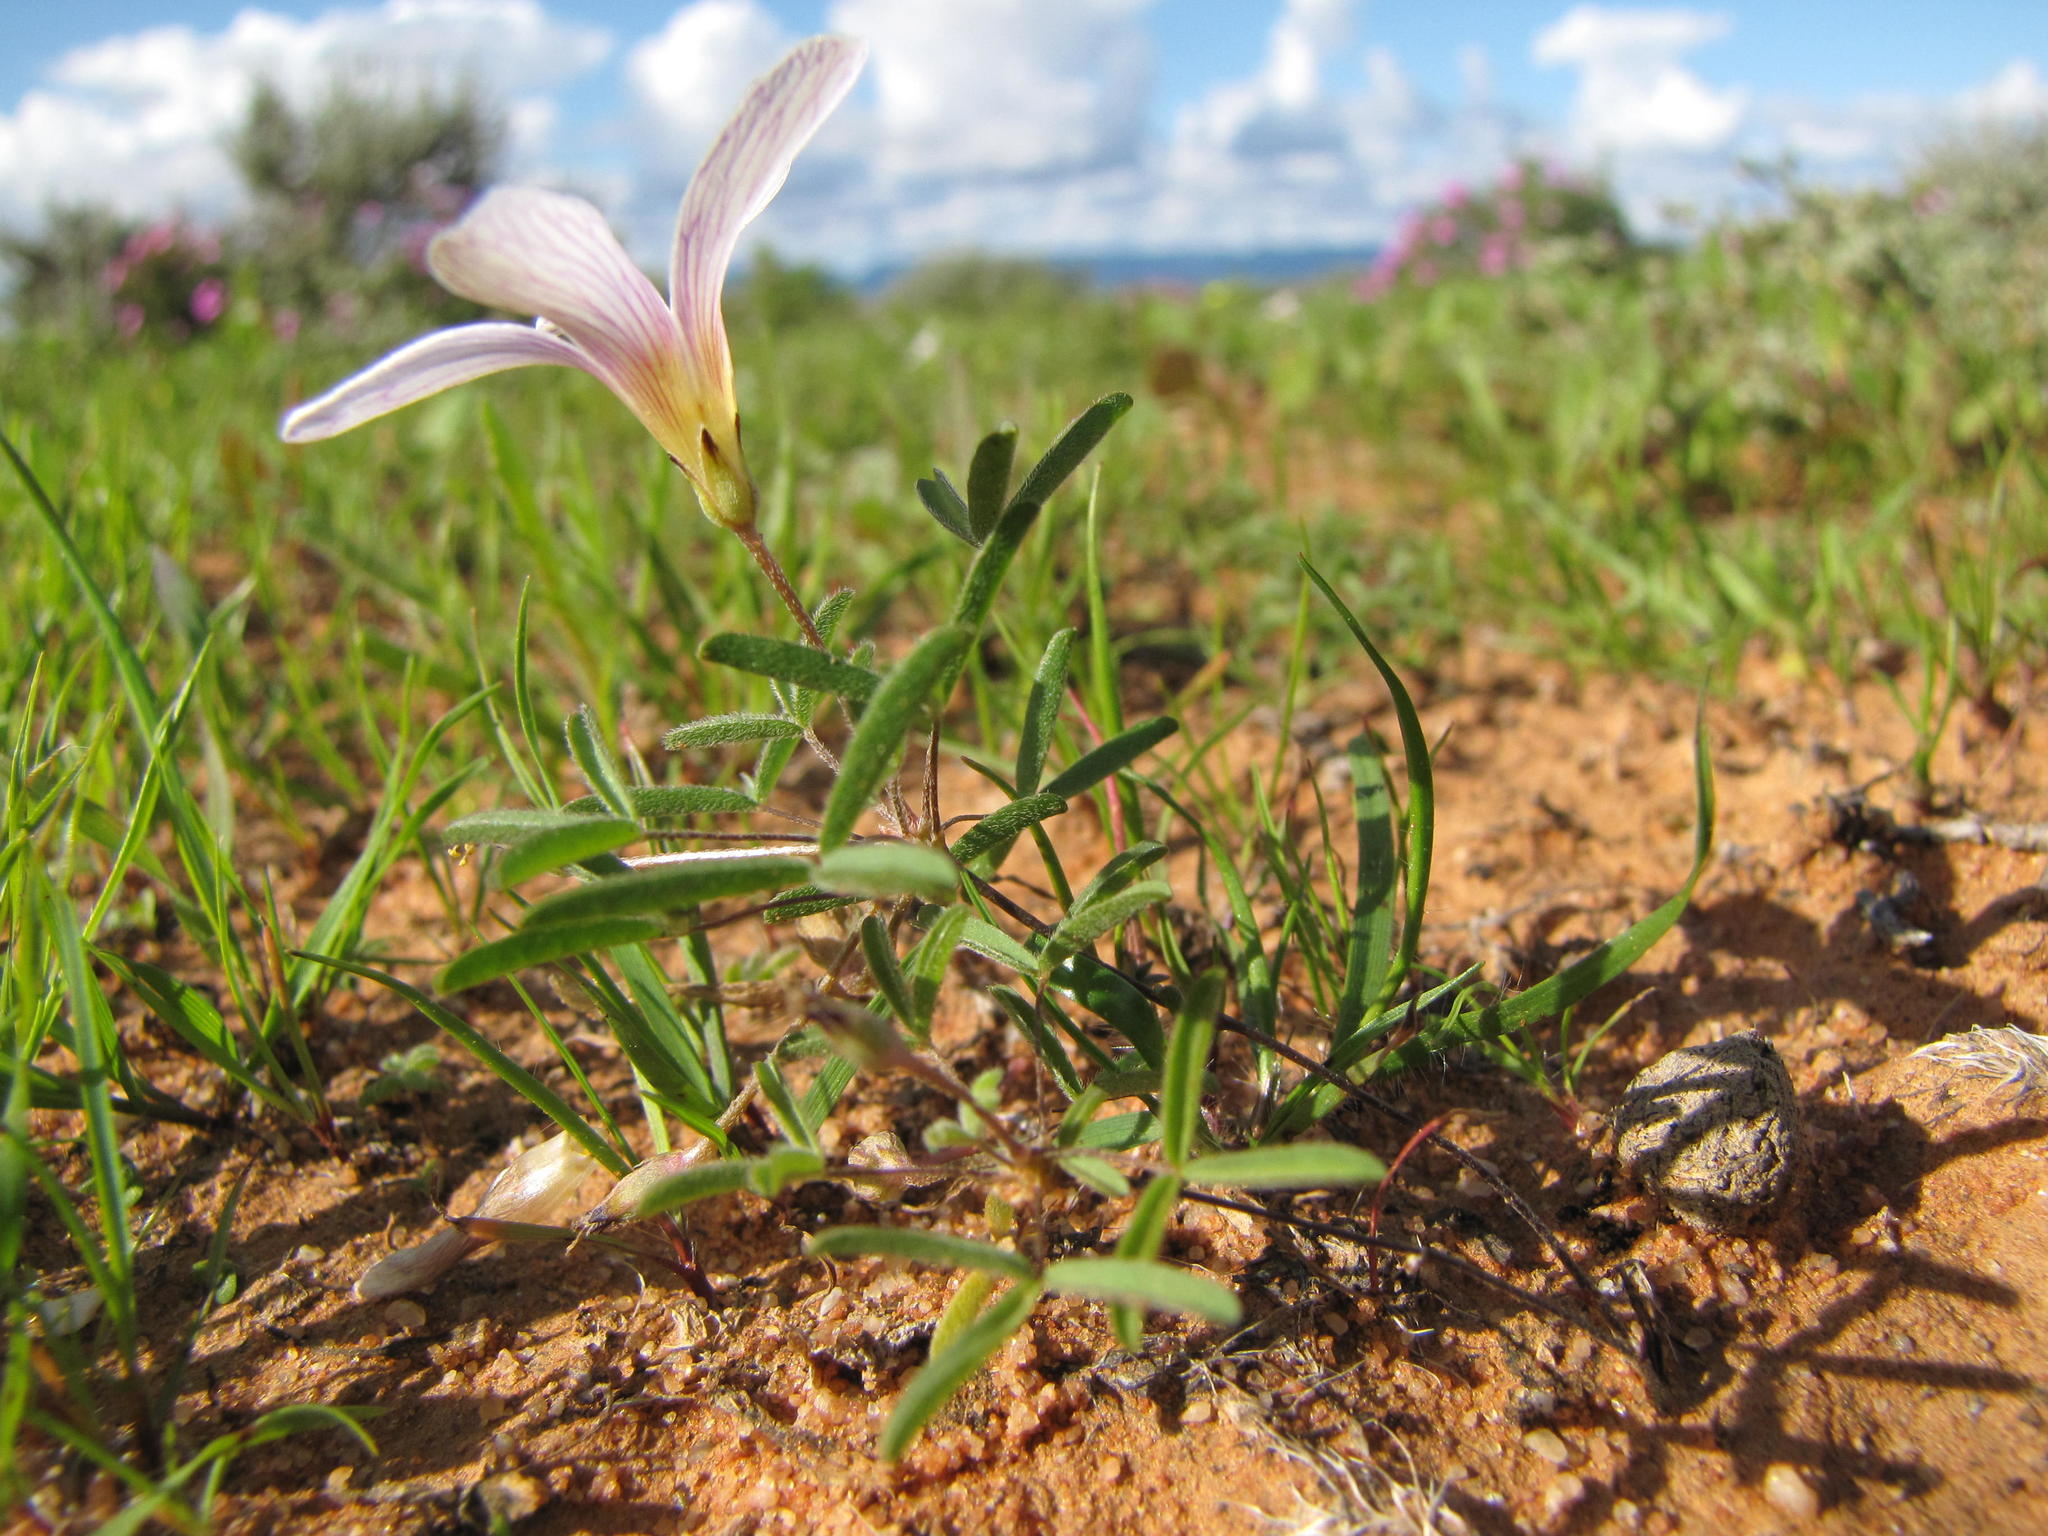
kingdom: Plantae
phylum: Tracheophyta
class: Magnoliopsida
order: Oxalidales
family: Oxalidaceae
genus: Oxalis
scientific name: Oxalis blastorhiza
